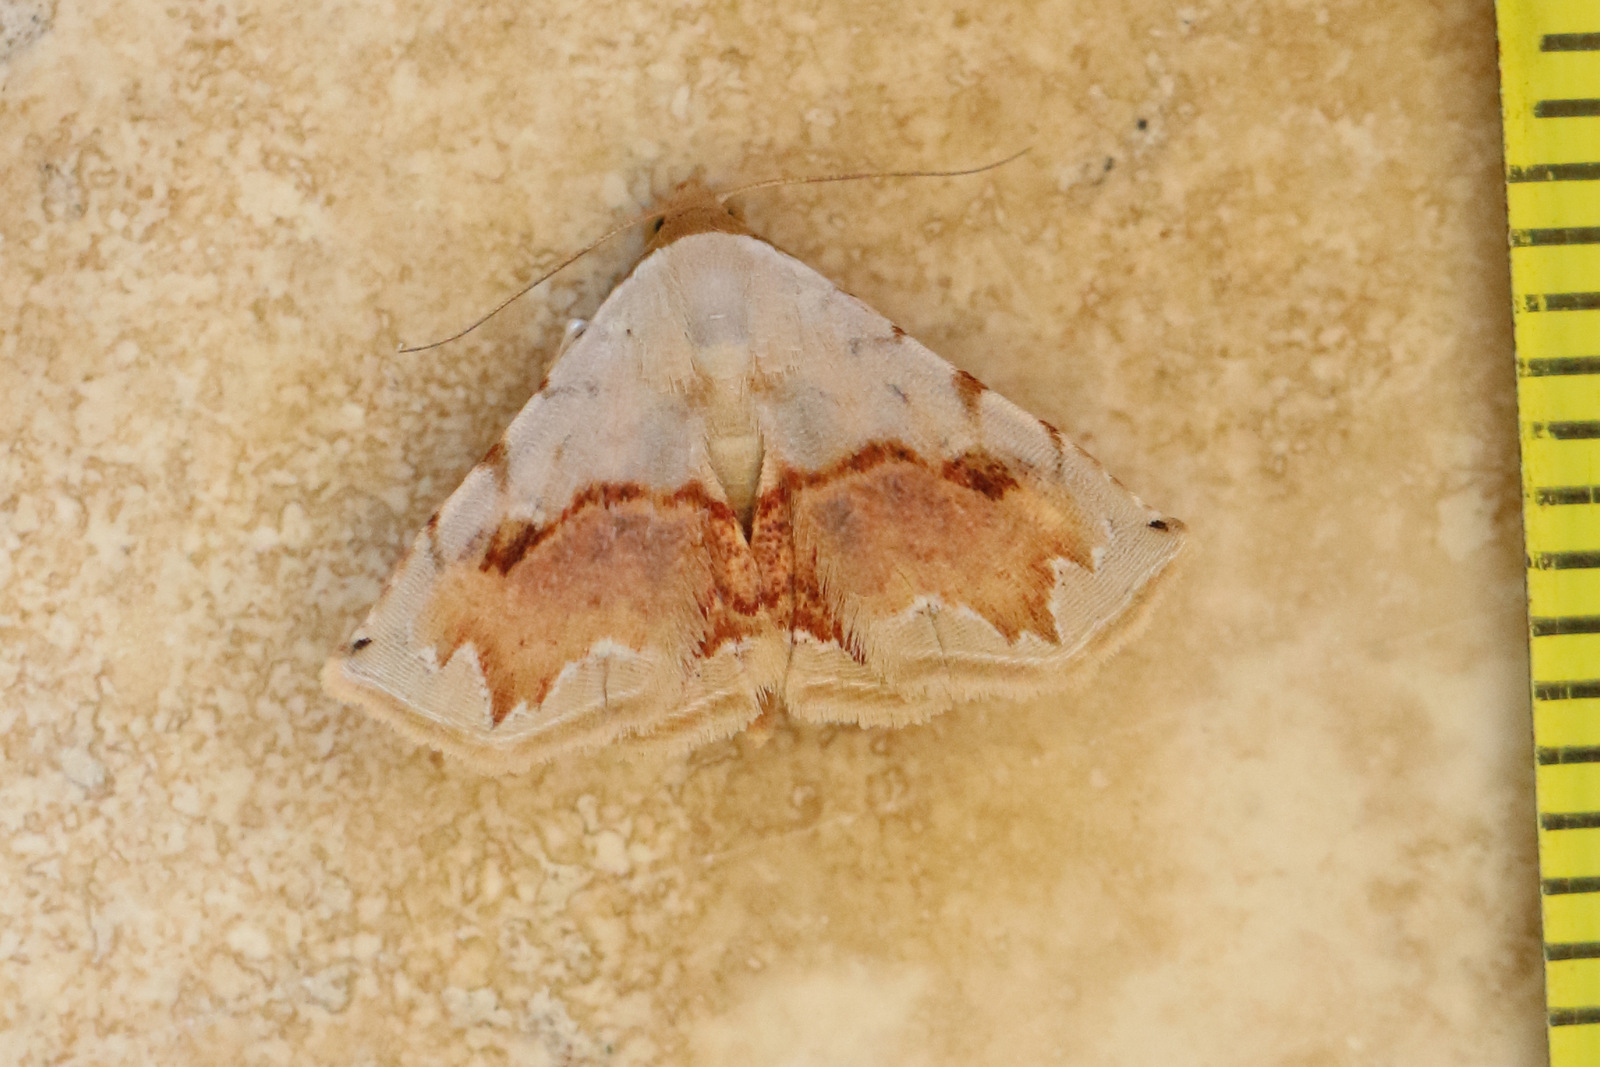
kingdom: Animalia
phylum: Arthropoda
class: Insecta
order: Lepidoptera
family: Noctuidae
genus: Eublemma
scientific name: Eublemma
